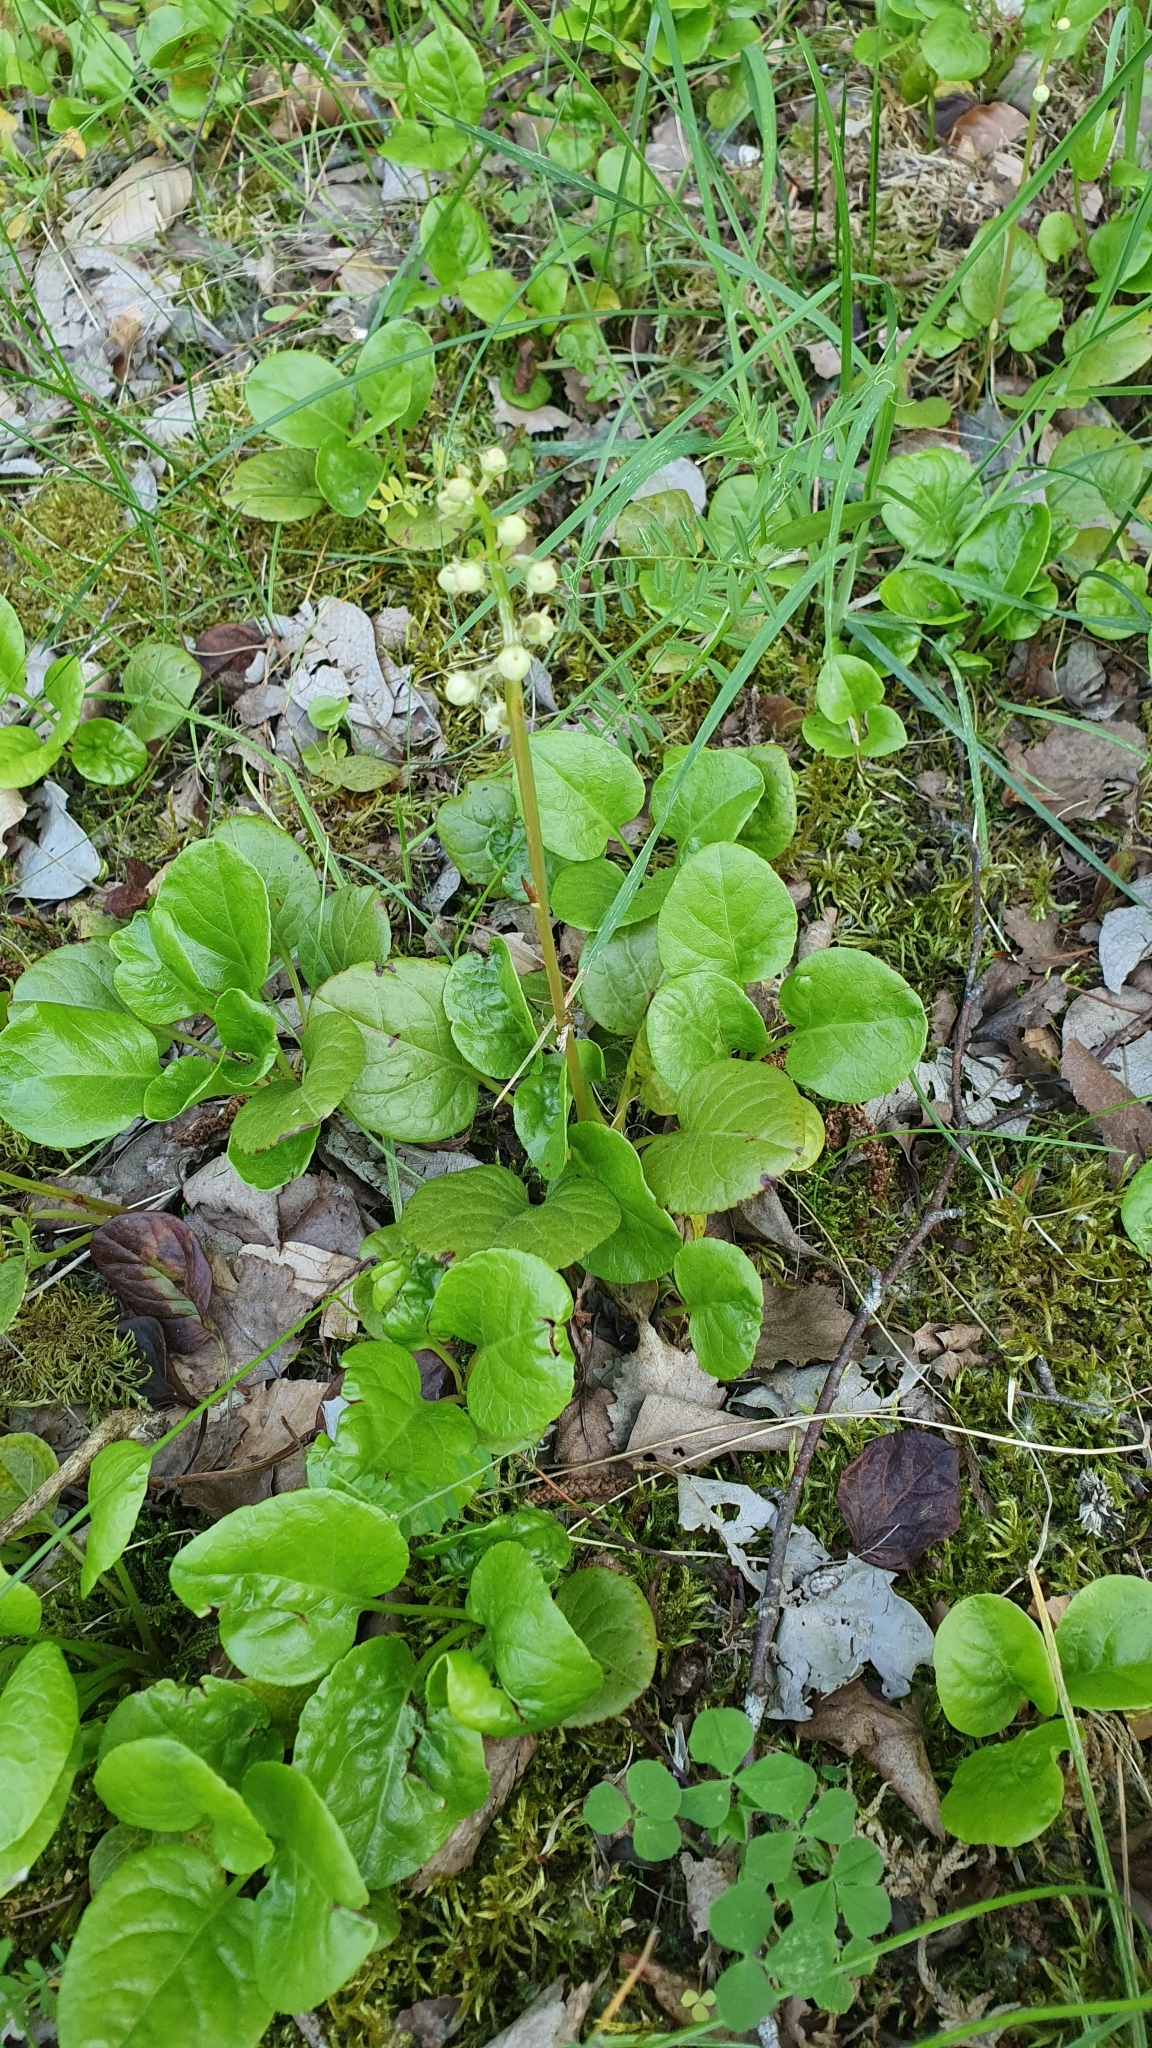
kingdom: Plantae
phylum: Tracheophyta
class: Magnoliopsida
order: Ericales
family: Ericaceae
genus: Pyrola
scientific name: Pyrola rotundifolia
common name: Round-leaved wintergreen
